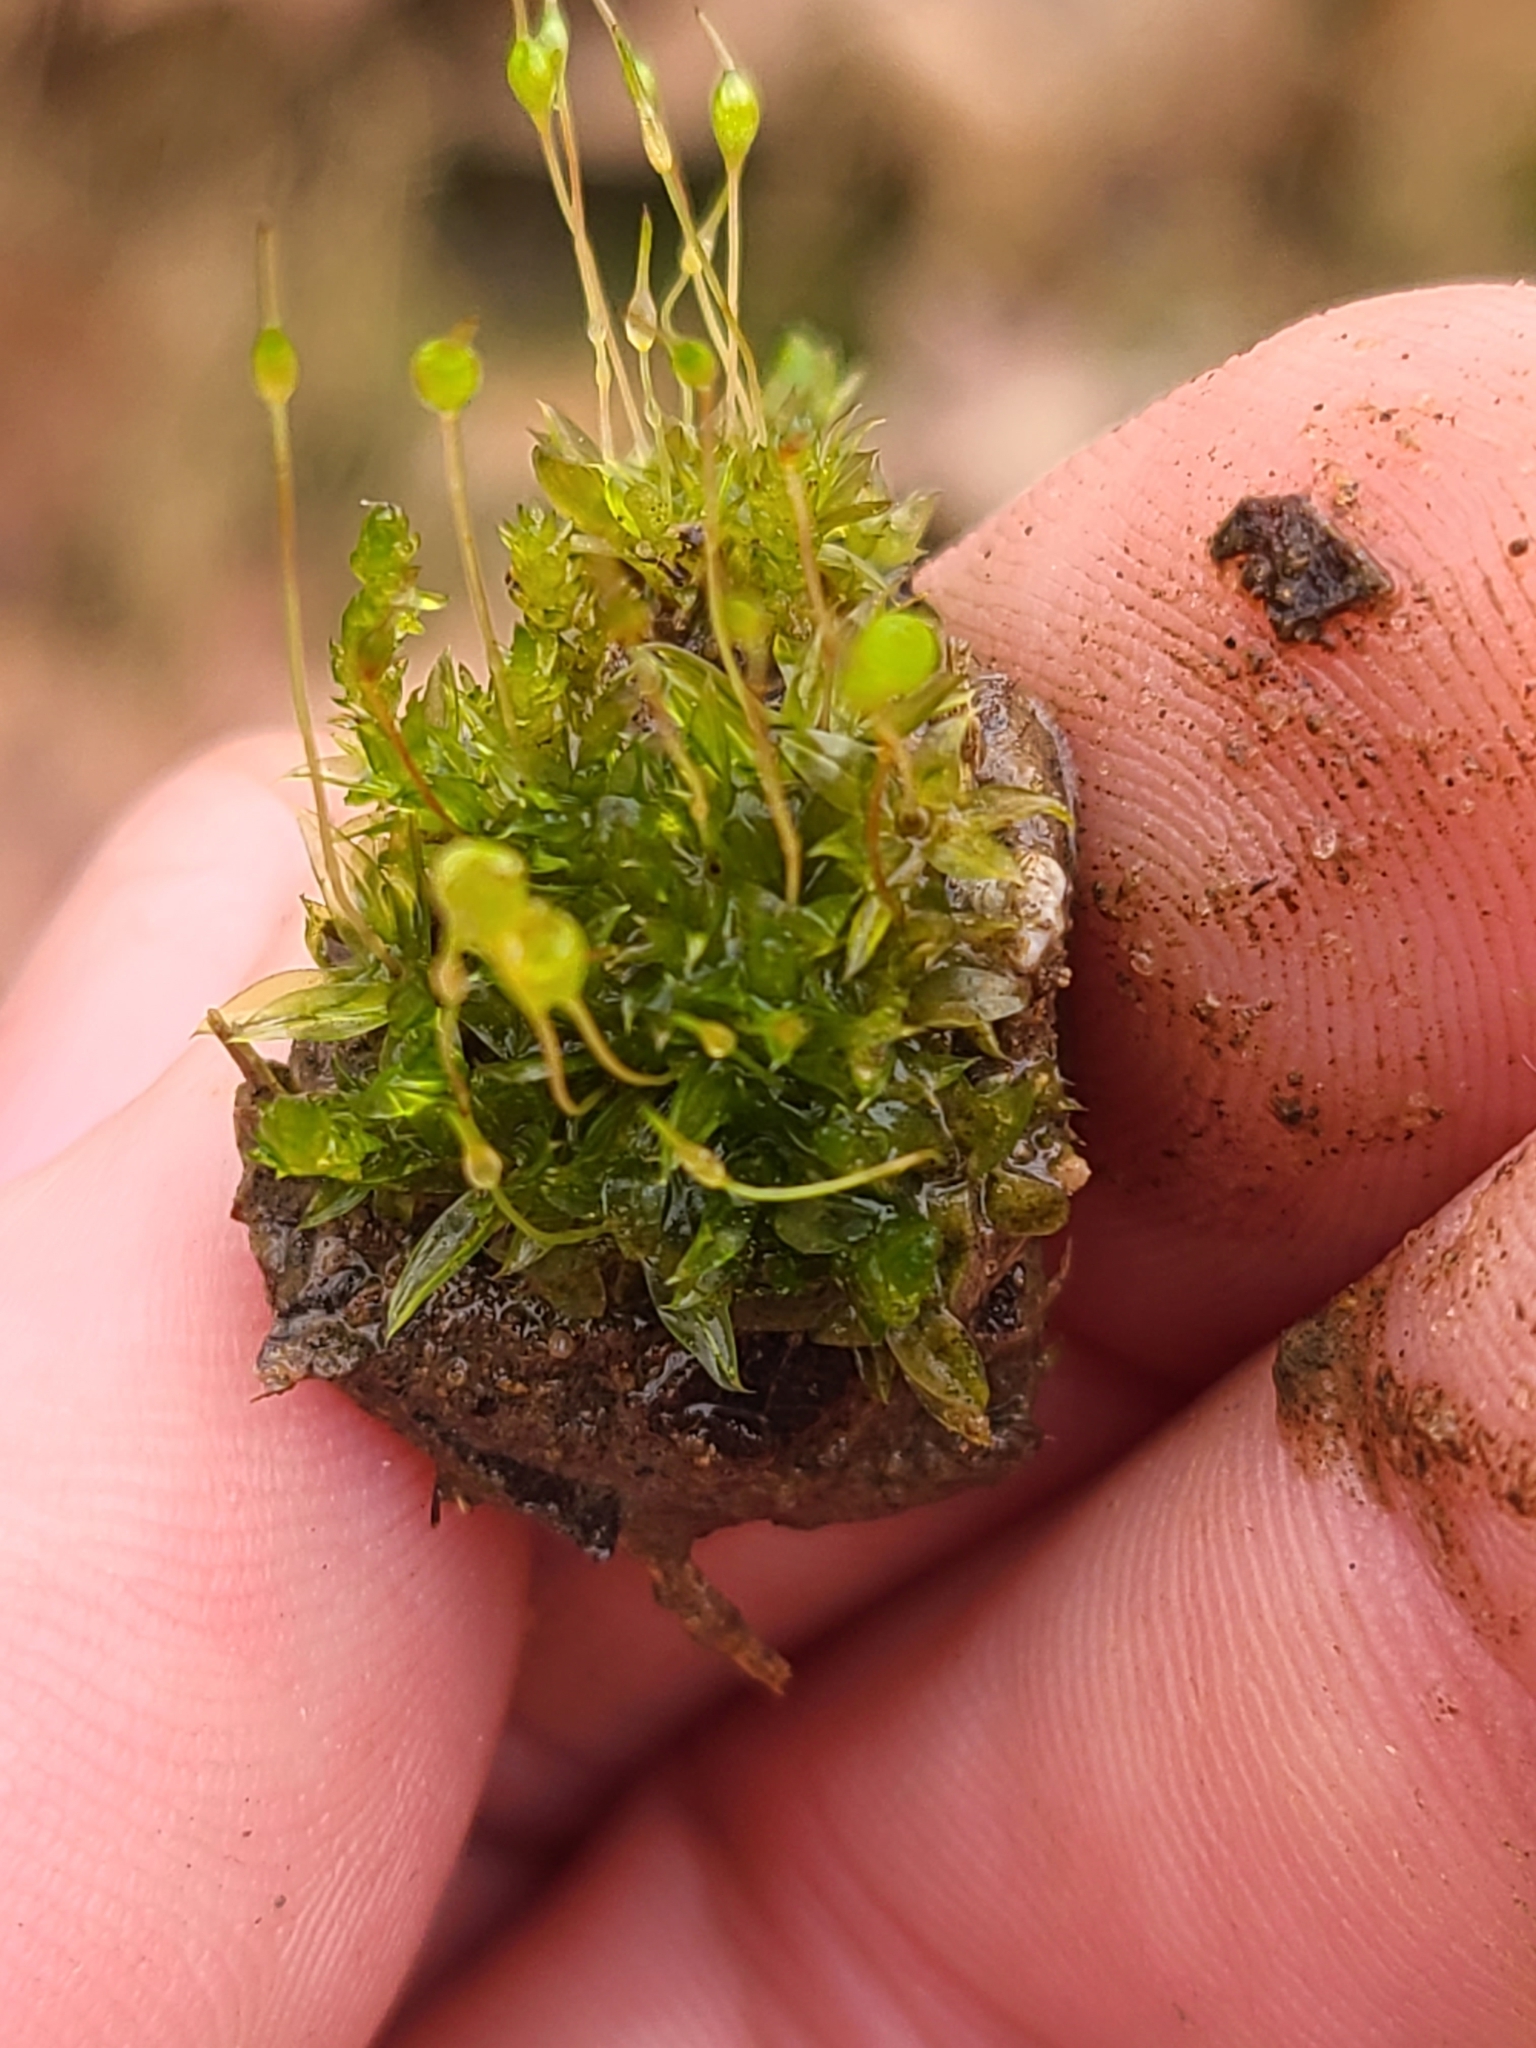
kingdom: Plantae
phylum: Bryophyta
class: Bryopsida
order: Funariales
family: Funariaceae
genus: Physcomitrium
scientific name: Physcomitrium pyriforme
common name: Common bladder-moss
